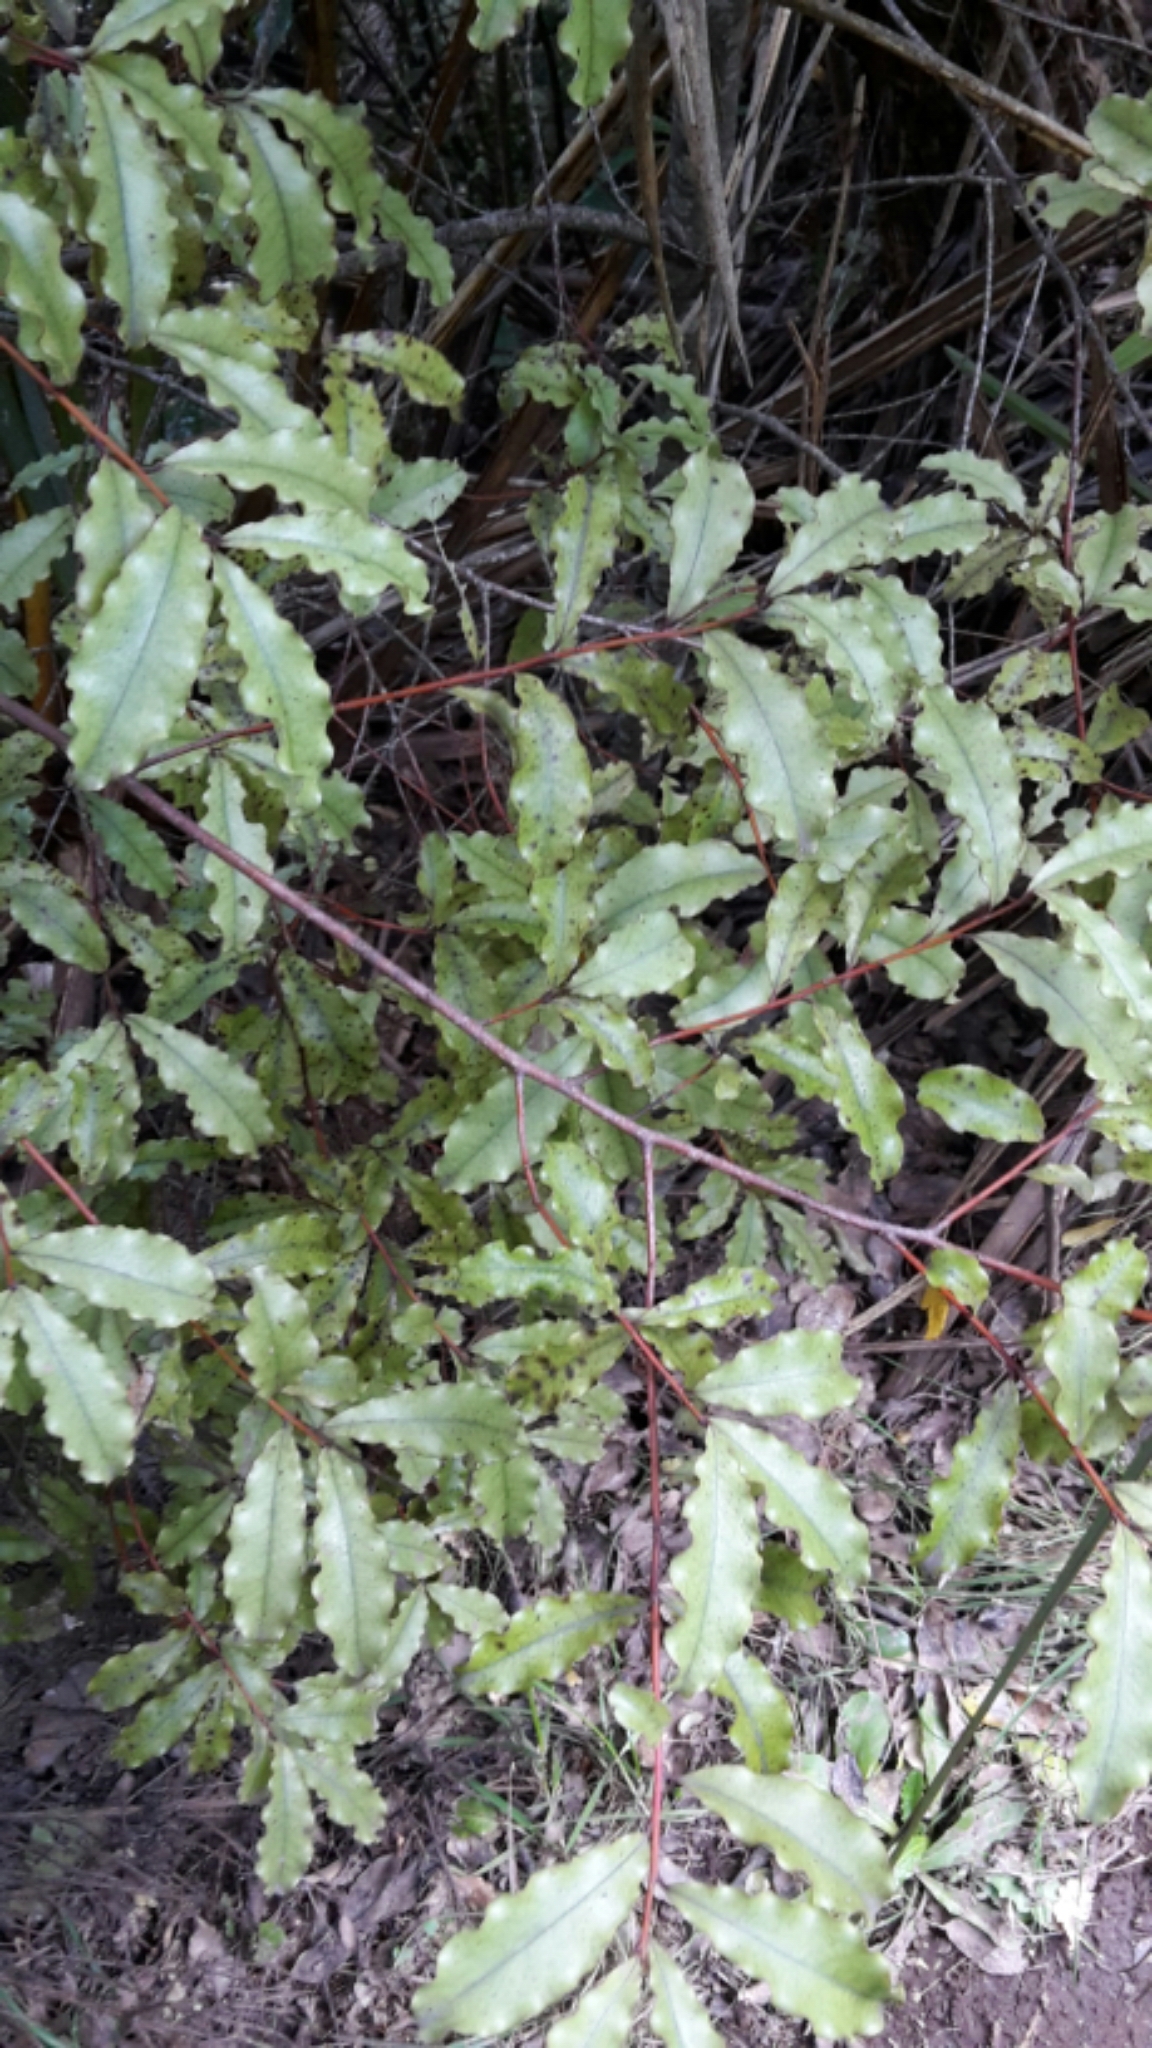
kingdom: Plantae
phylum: Tracheophyta
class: Magnoliopsida
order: Ericales
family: Primulaceae
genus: Myrsine
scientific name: Myrsine australis
